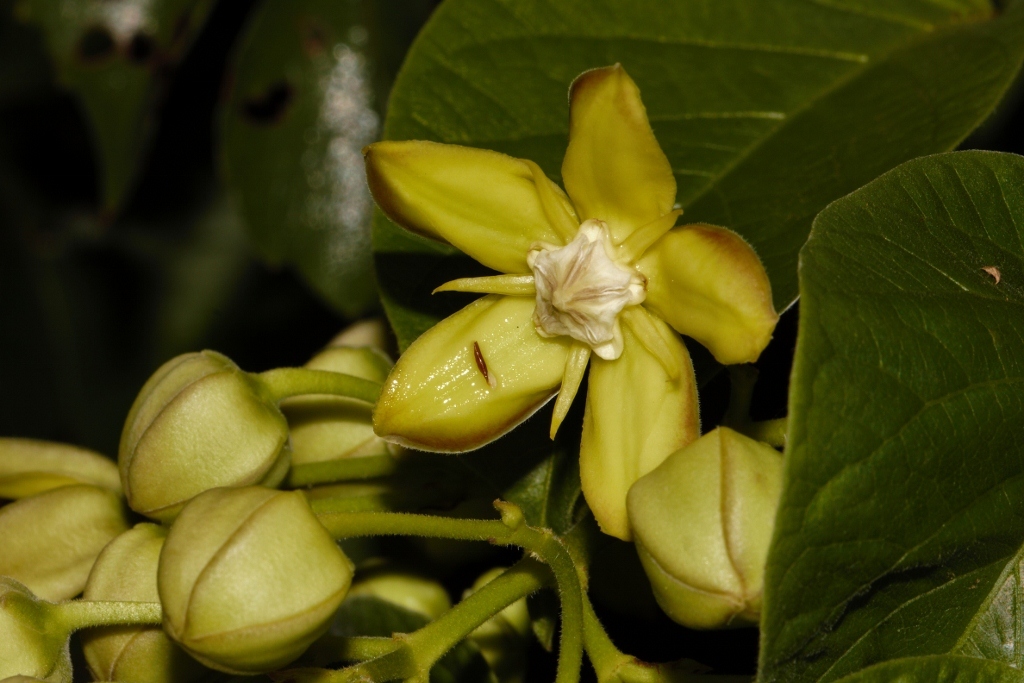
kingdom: Plantae
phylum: Tracheophyta
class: Magnoliopsida
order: Gentianales
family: Apocynaceae
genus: Mondia
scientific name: Mondia whitei
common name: Mondia
